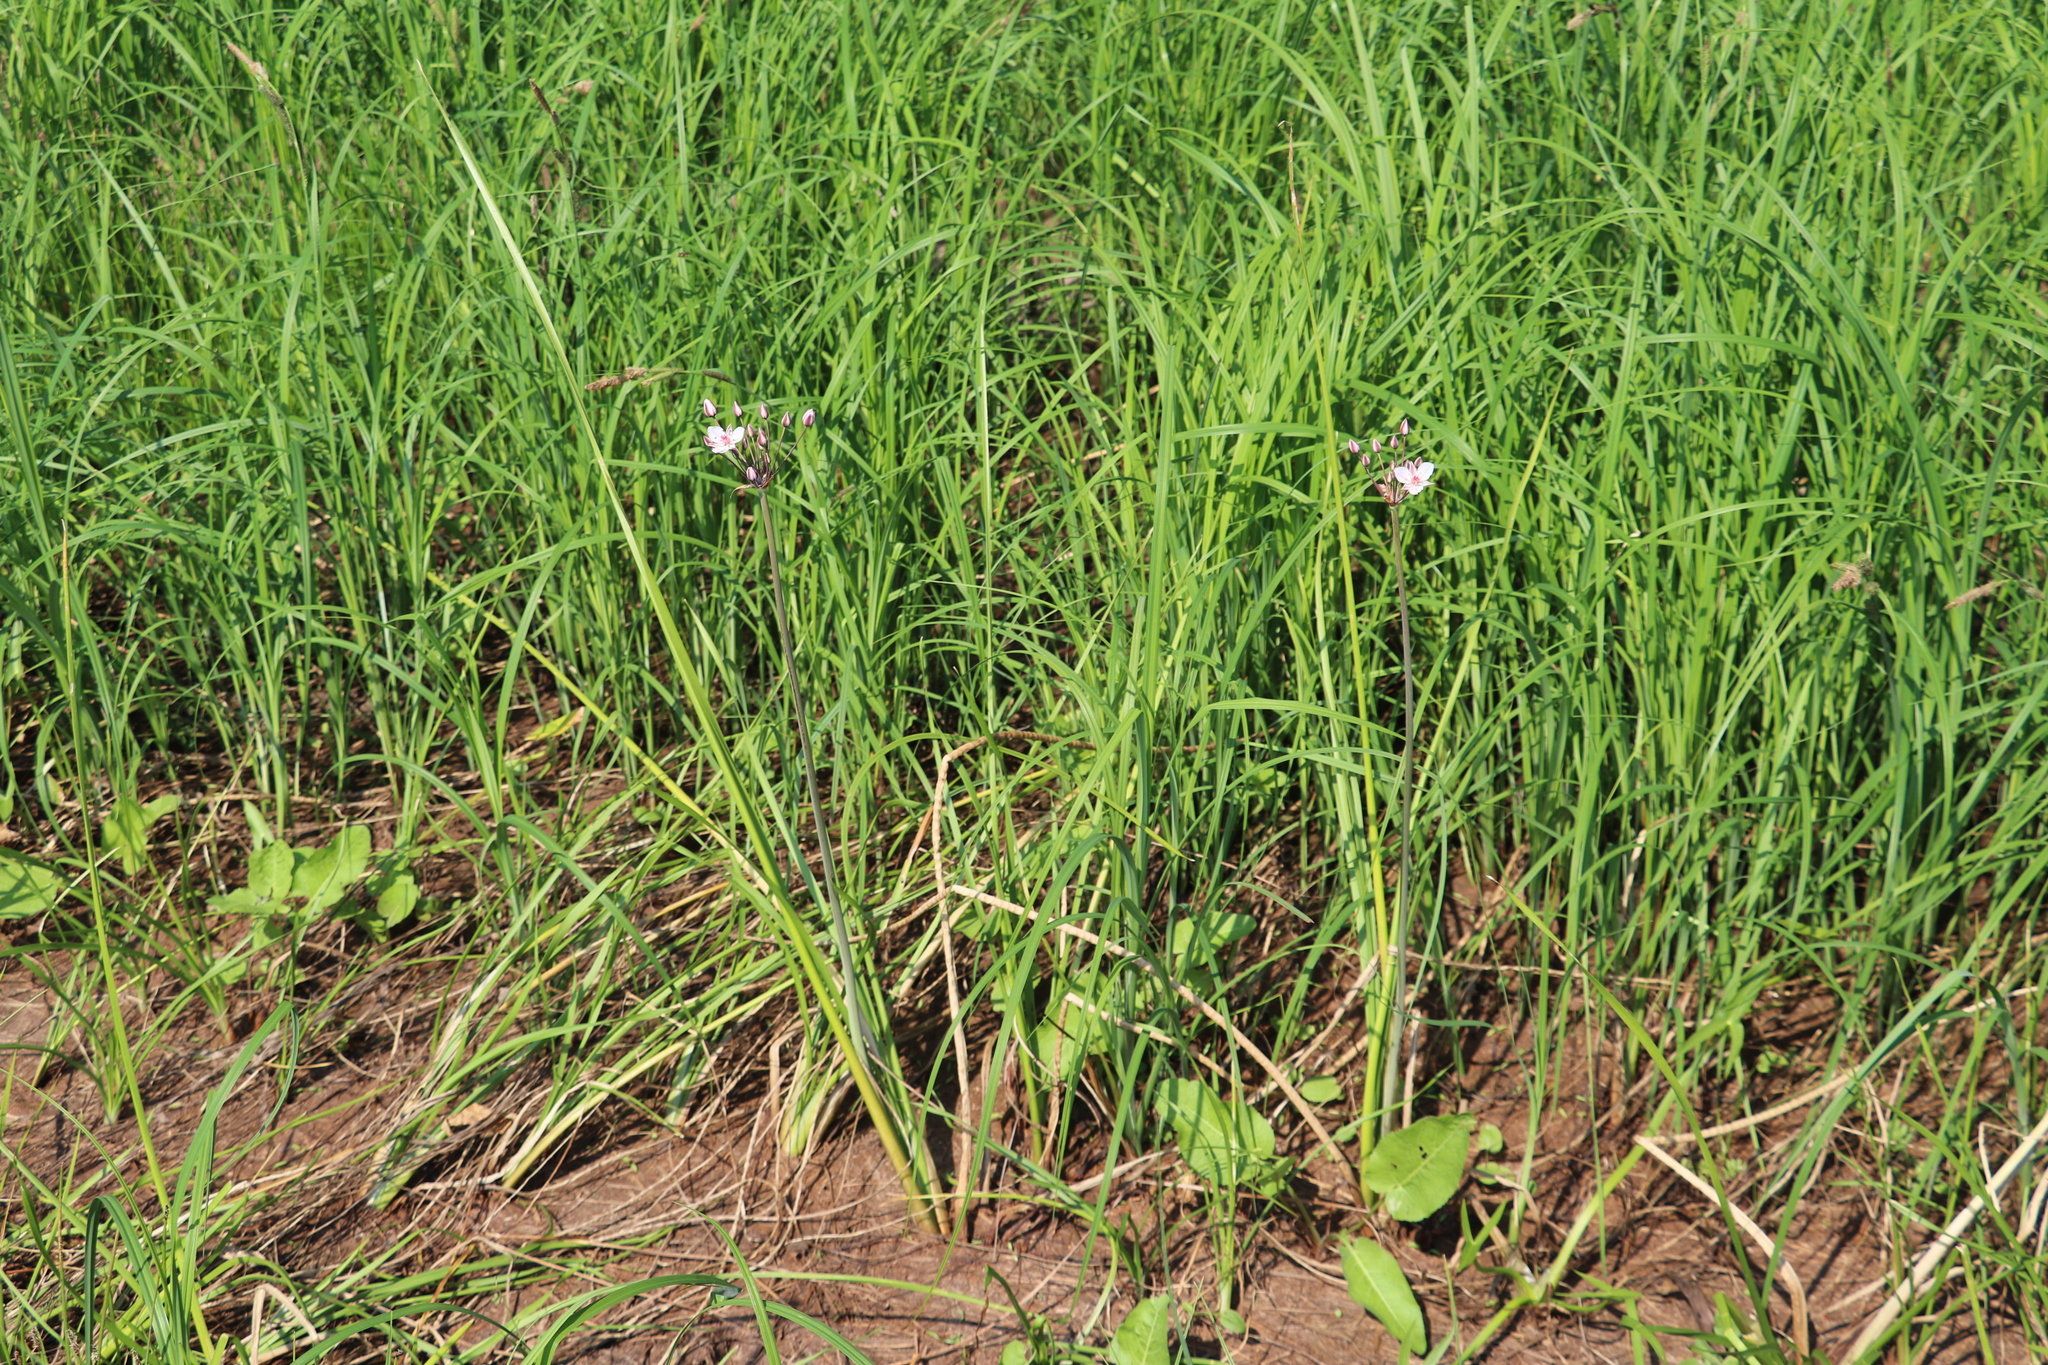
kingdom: Plantae
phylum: Tracheophyta
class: Liliopsida
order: Alismatales
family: Butomaceae
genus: Butomus
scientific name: Butomus umbellatus
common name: Flowering-rush
